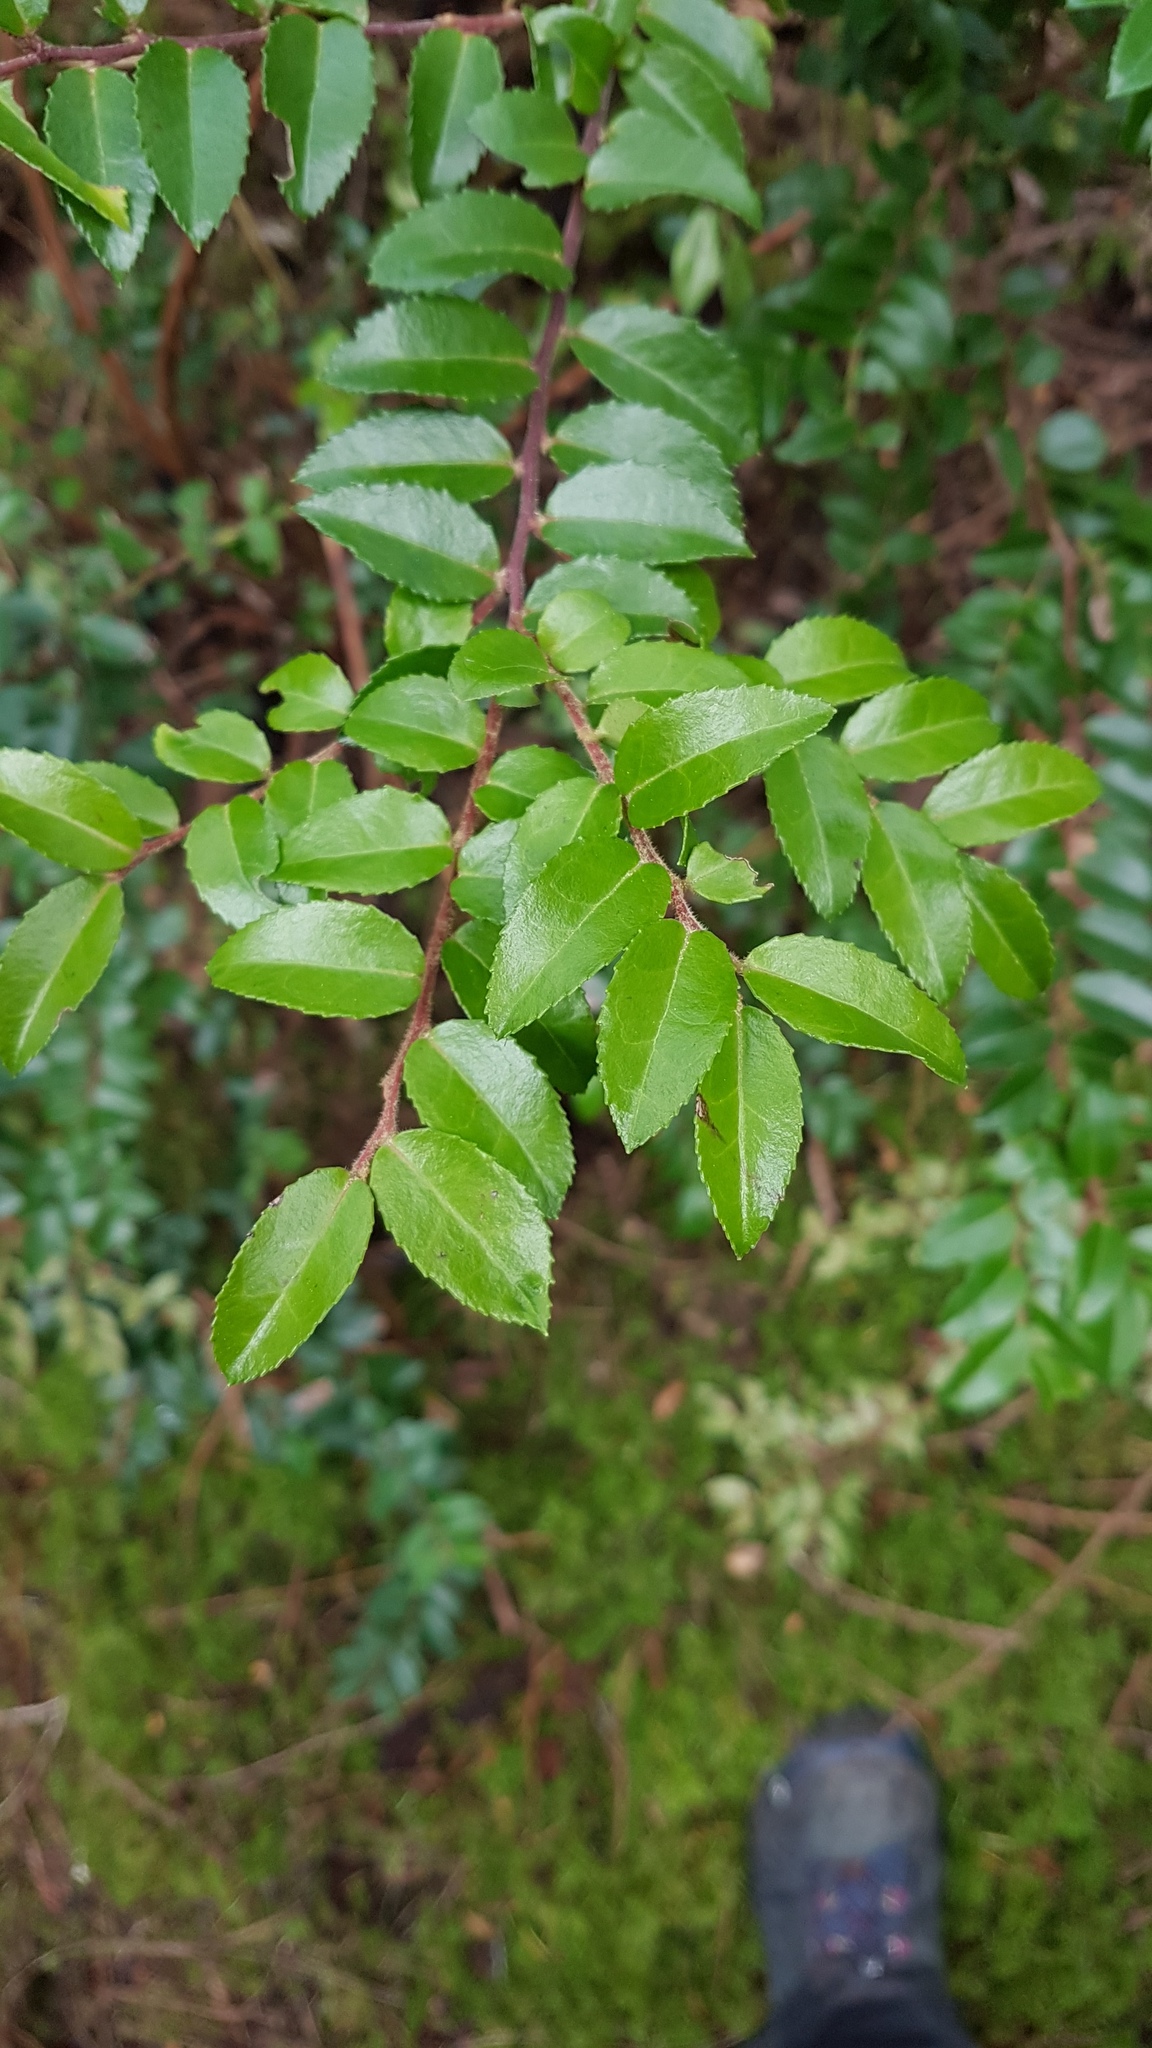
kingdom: Plantae
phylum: Tracheophyta
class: Magnoliopsida
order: Ericales
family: Ericaceae
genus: Vaccinium
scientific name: Vaccinium ovatum
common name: California-huckleberry
